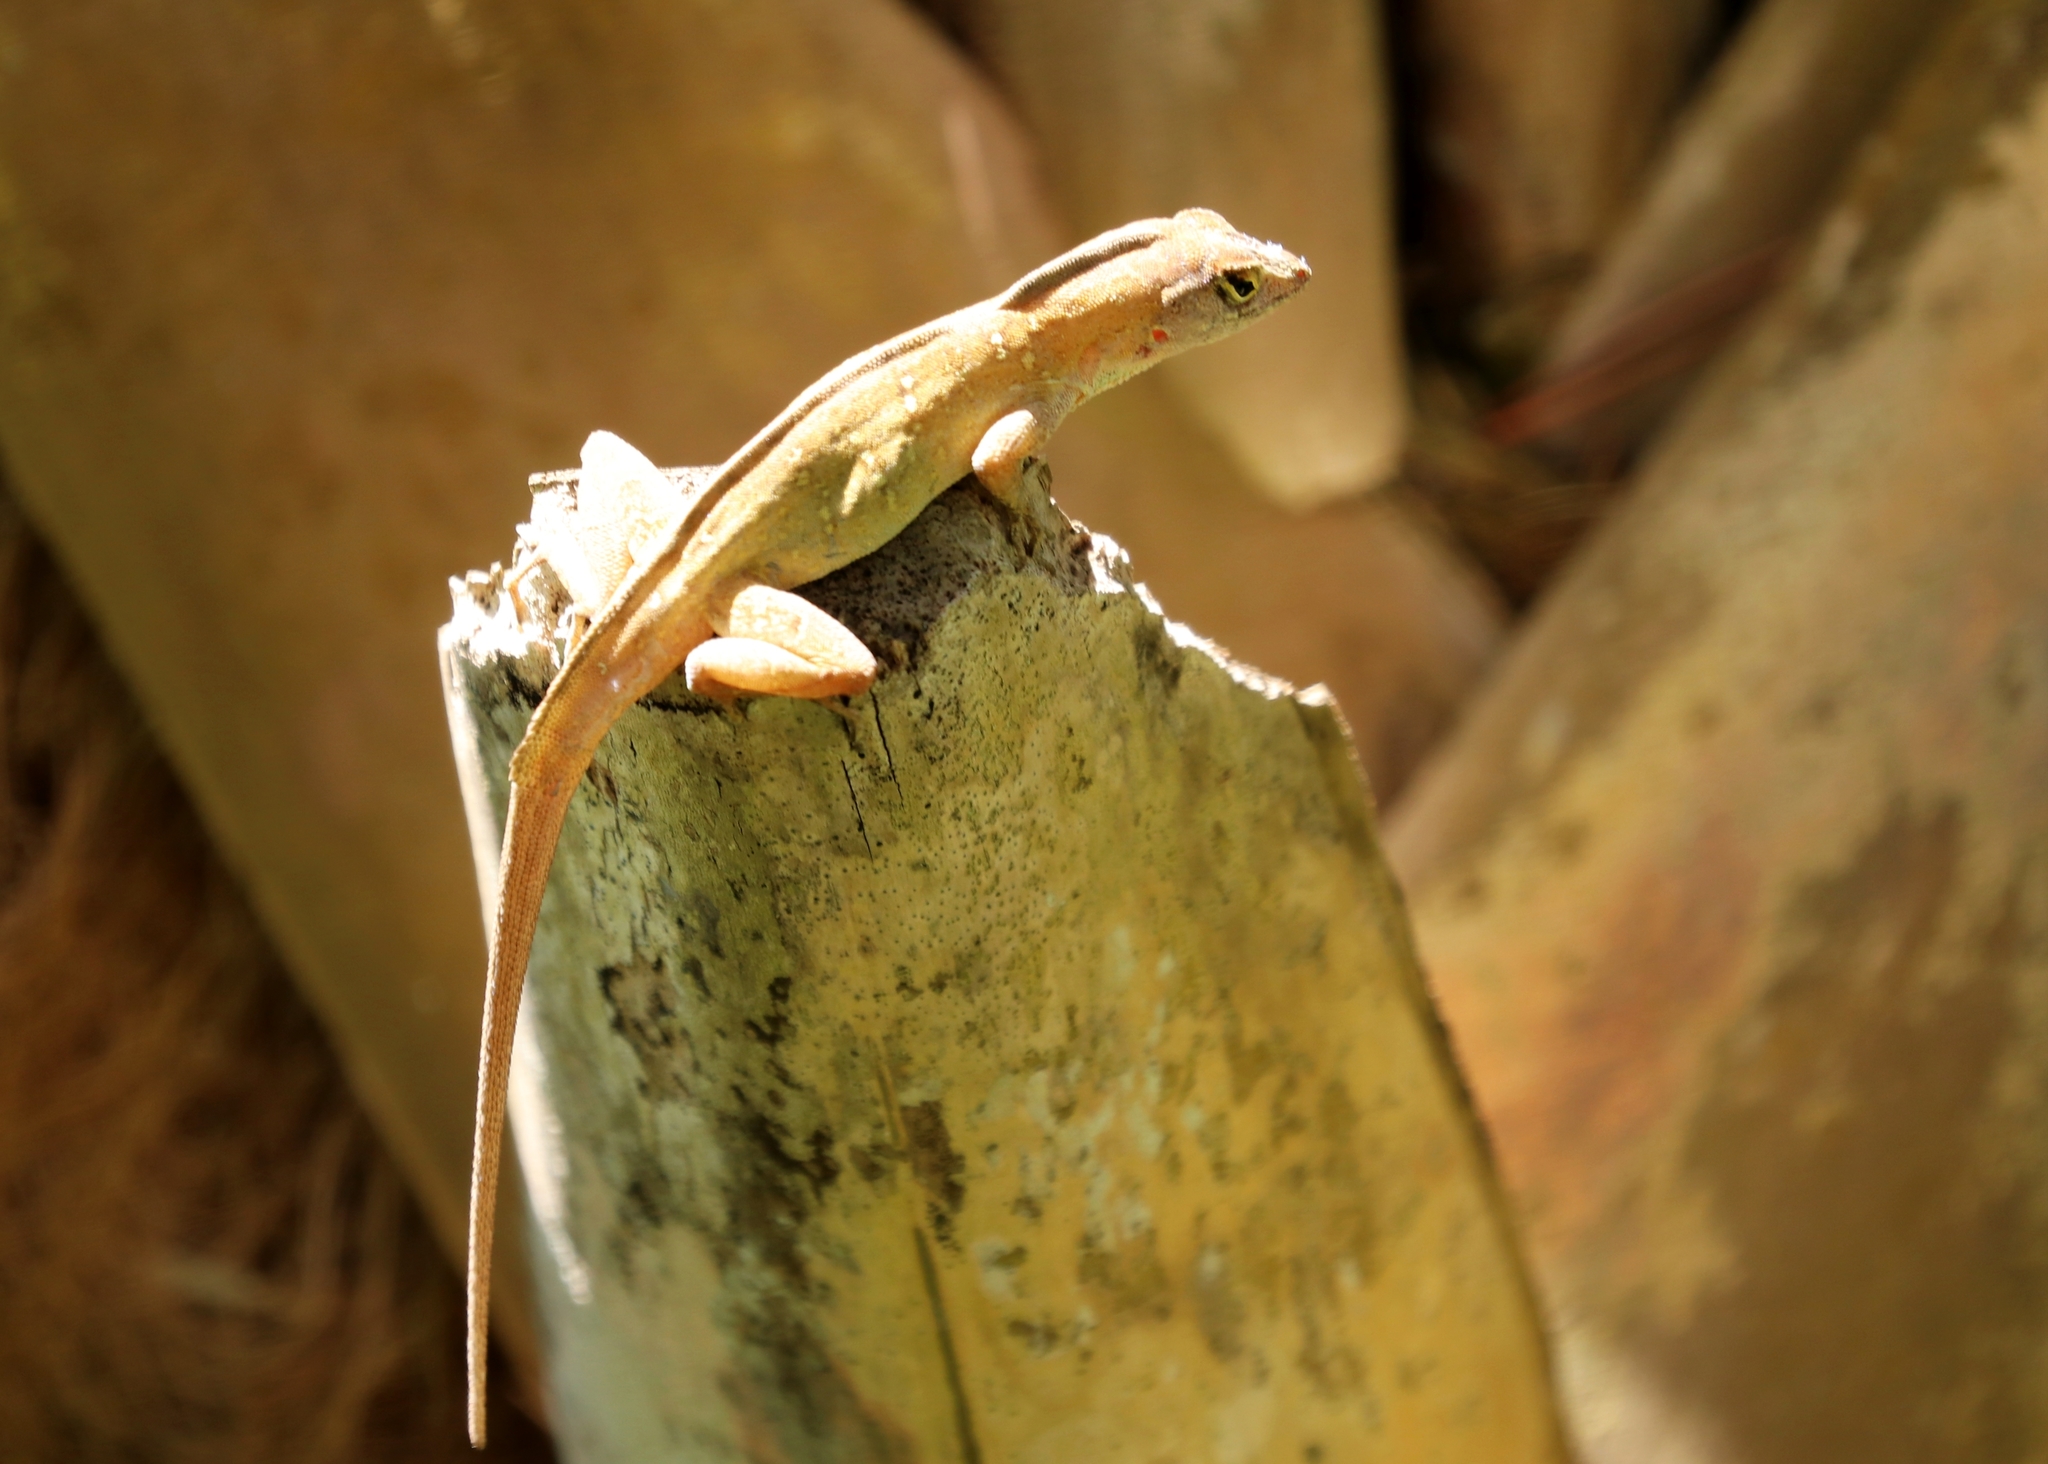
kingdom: Animalia
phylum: Chordata
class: Squamata
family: Dactyloidae
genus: Anolis
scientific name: Anolis sagrei
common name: Brown anole
